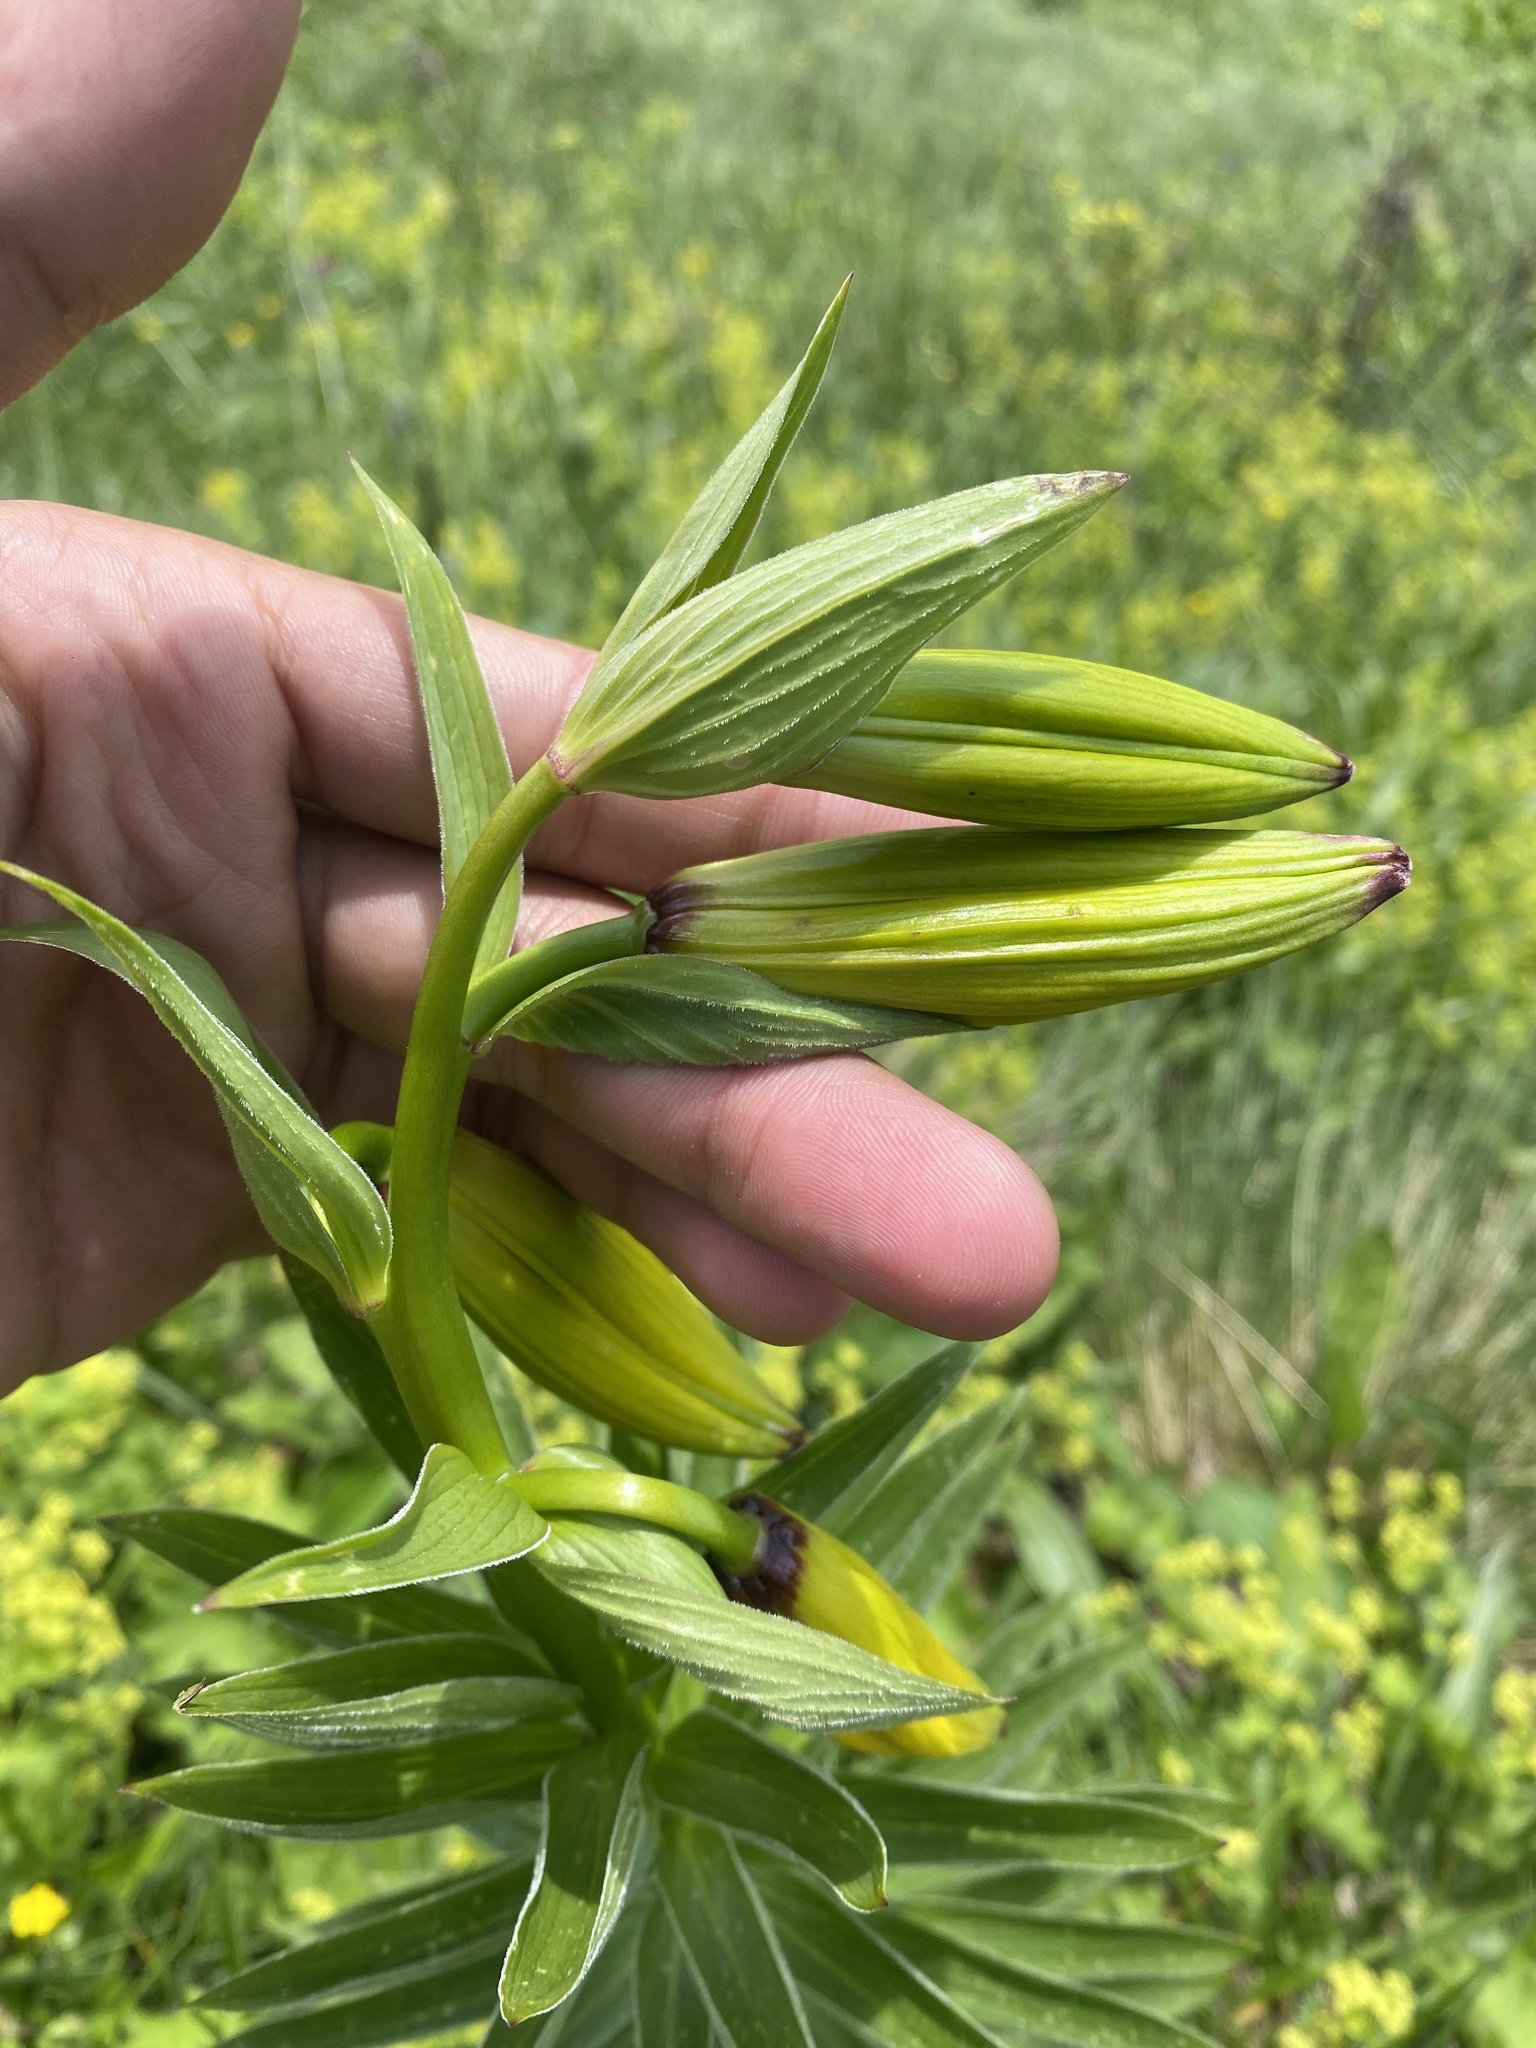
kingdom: Plantae
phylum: Tracheophyta
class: Liliopsida
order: Liliales
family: Liliaceae
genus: Lilium
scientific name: Lilium monadelphum
